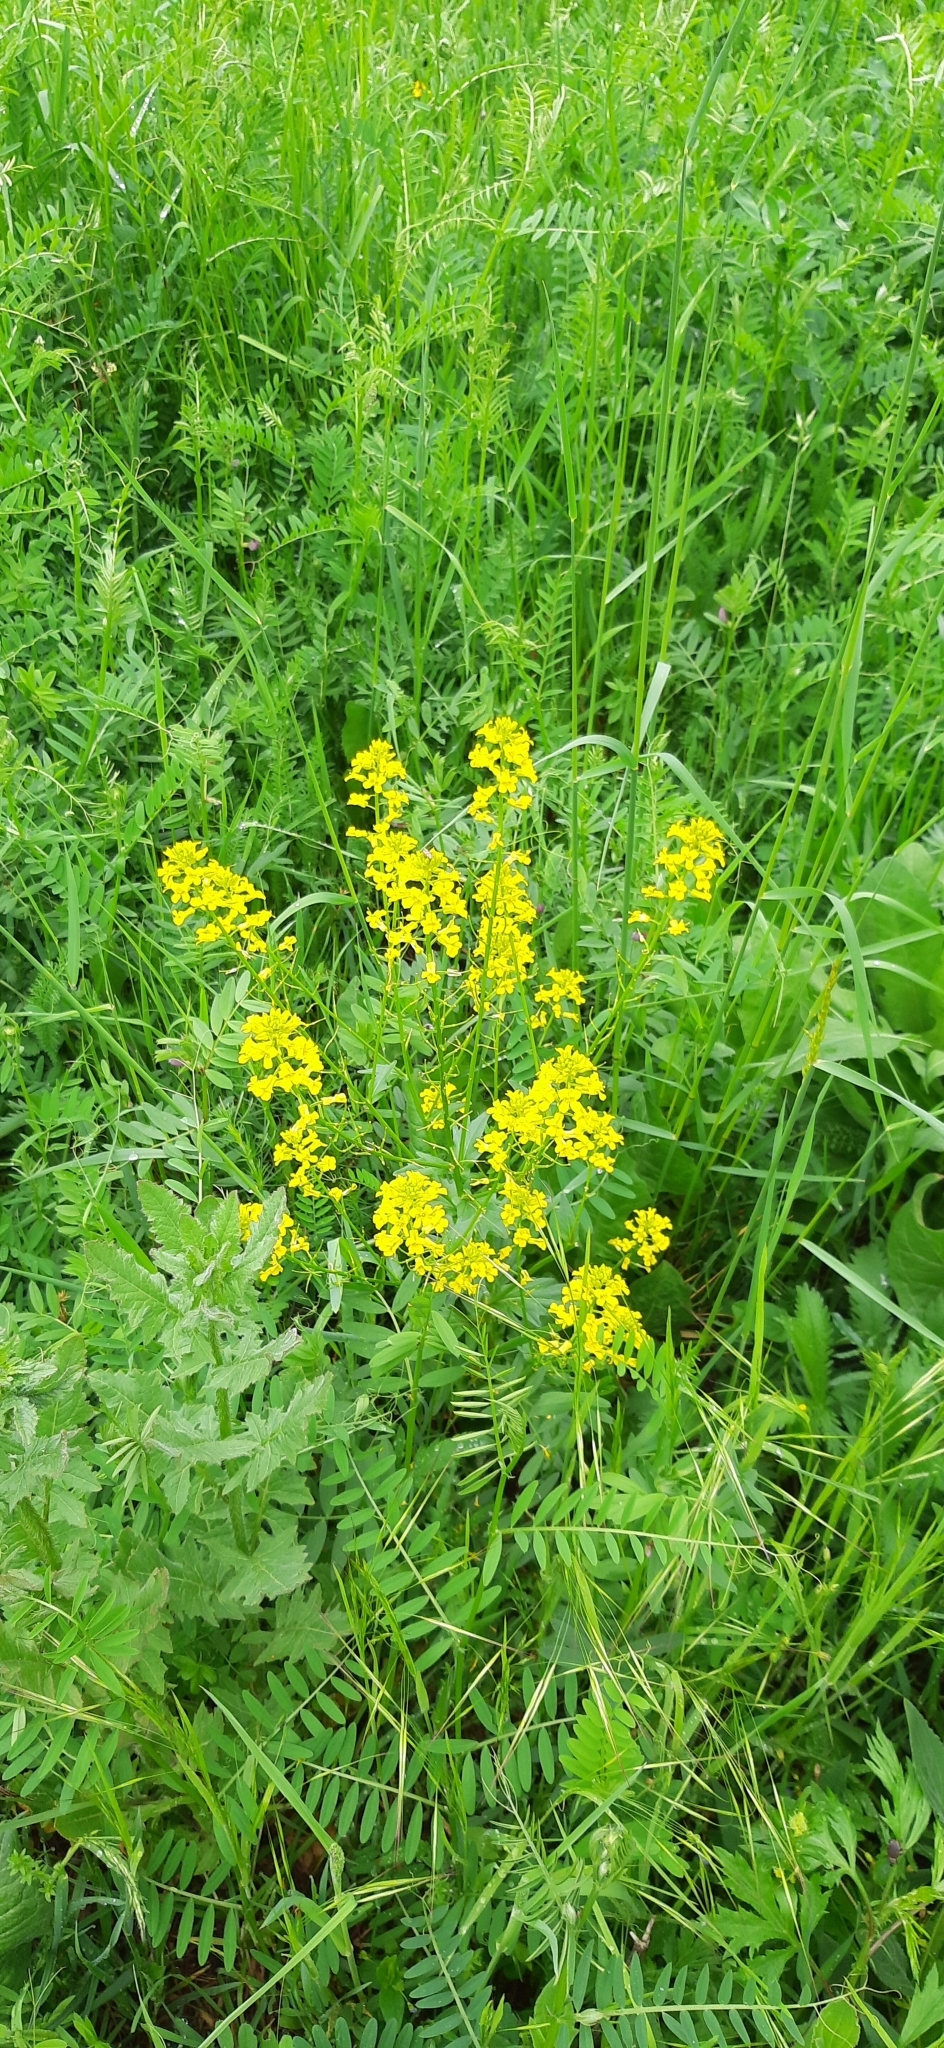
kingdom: Plantae
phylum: Tracheophyta
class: Magnoliopsida
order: Brassicales
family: Brassicaceae
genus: Barbarea
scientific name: Barbarea vulgaris
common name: Cressy-greens
